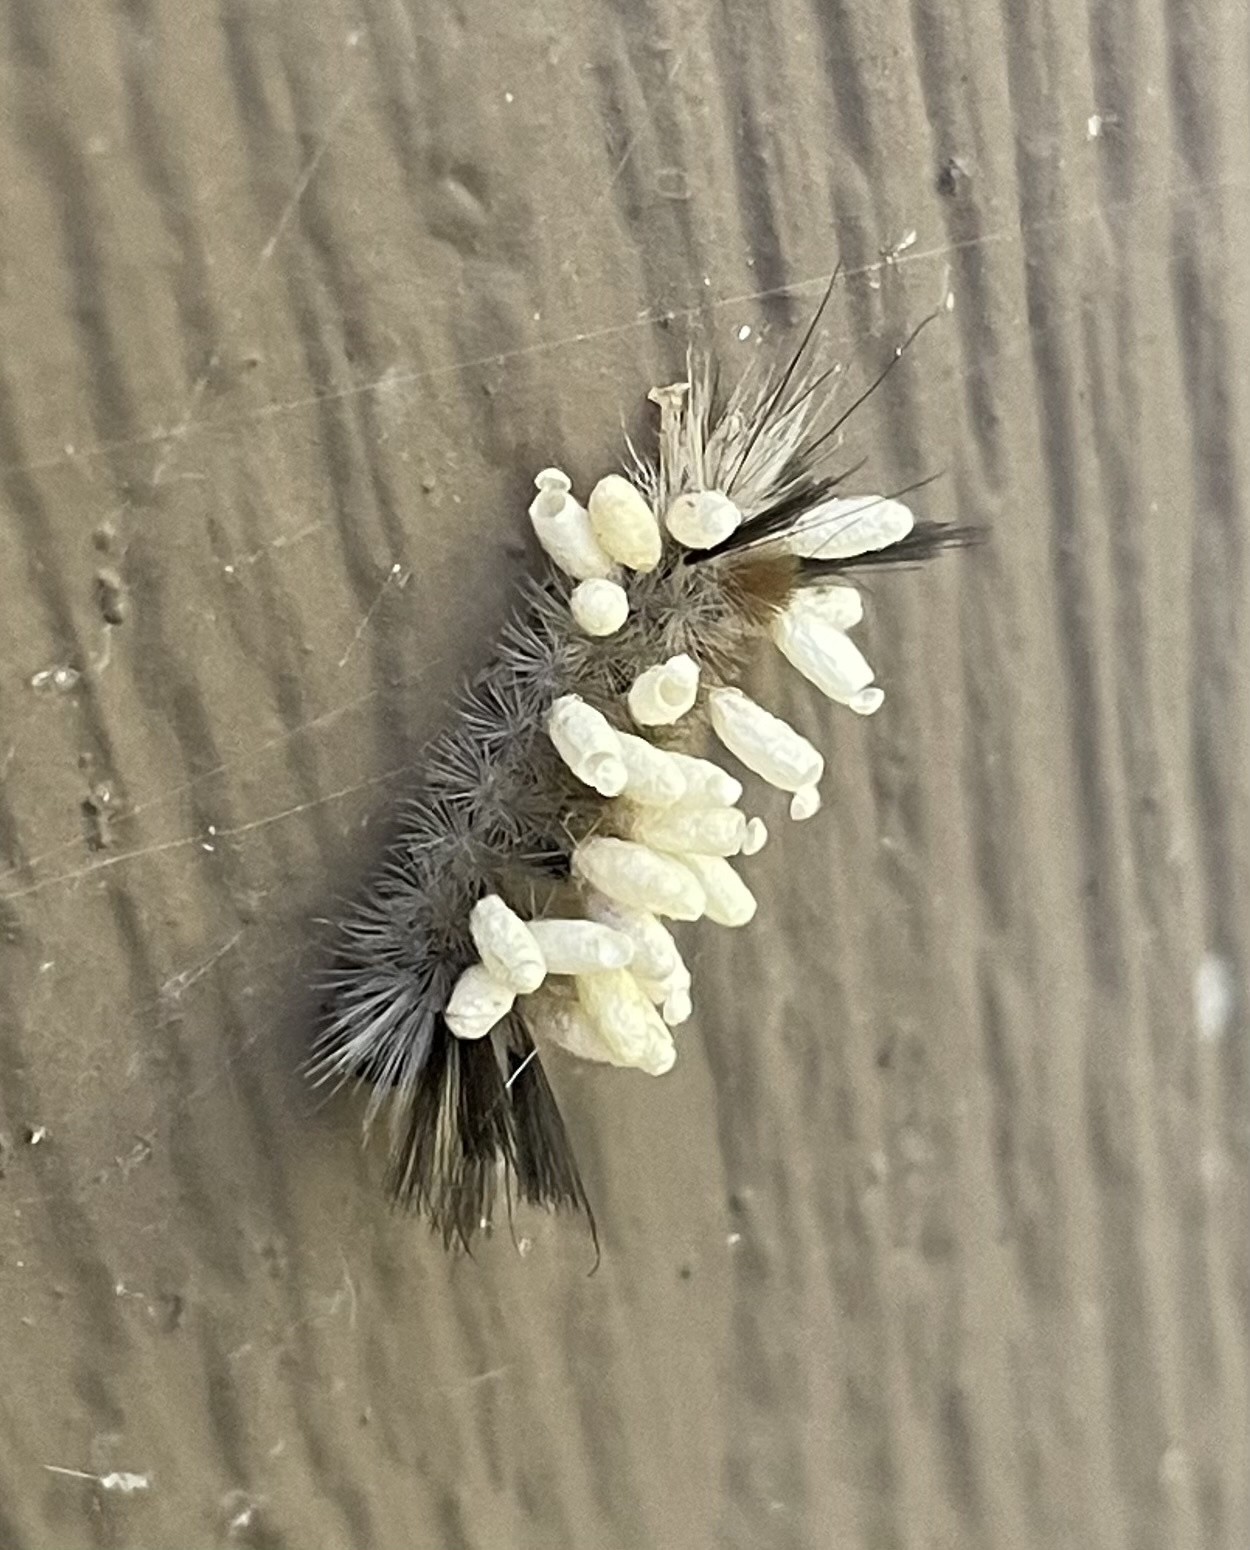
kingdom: Animalia
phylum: Arthropoda
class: Insecta
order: Lepidoptera
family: Erebidae
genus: Halysidota
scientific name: Halysidota tessellaris
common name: Banded tussock moth
